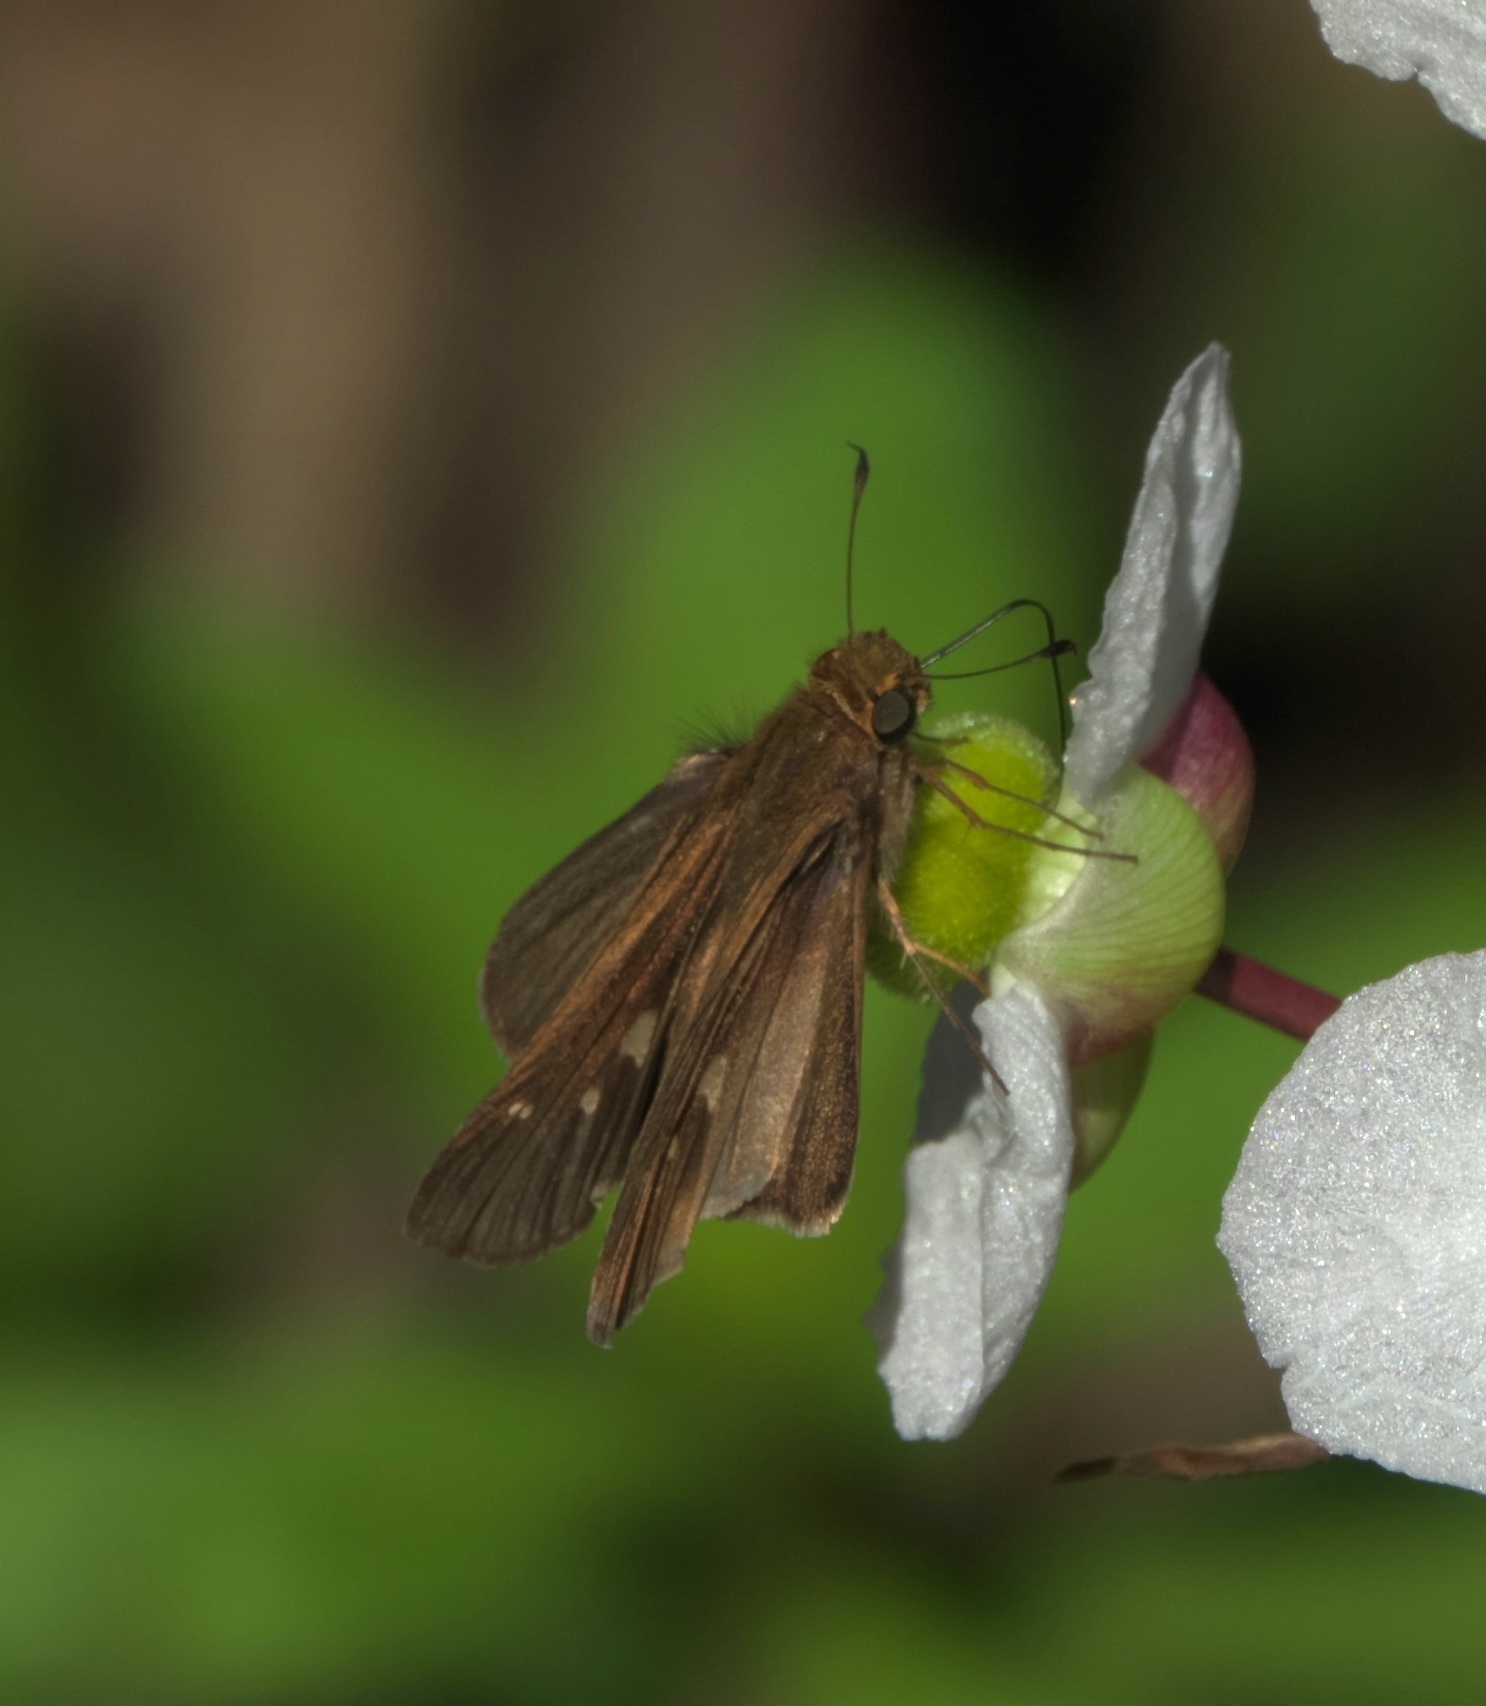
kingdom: Animalia
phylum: Arthropoda
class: Insecta
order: Lepidoptera
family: Hesperiidae
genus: Panoquina
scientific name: Panoquina ocola
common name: Ocola skipper
